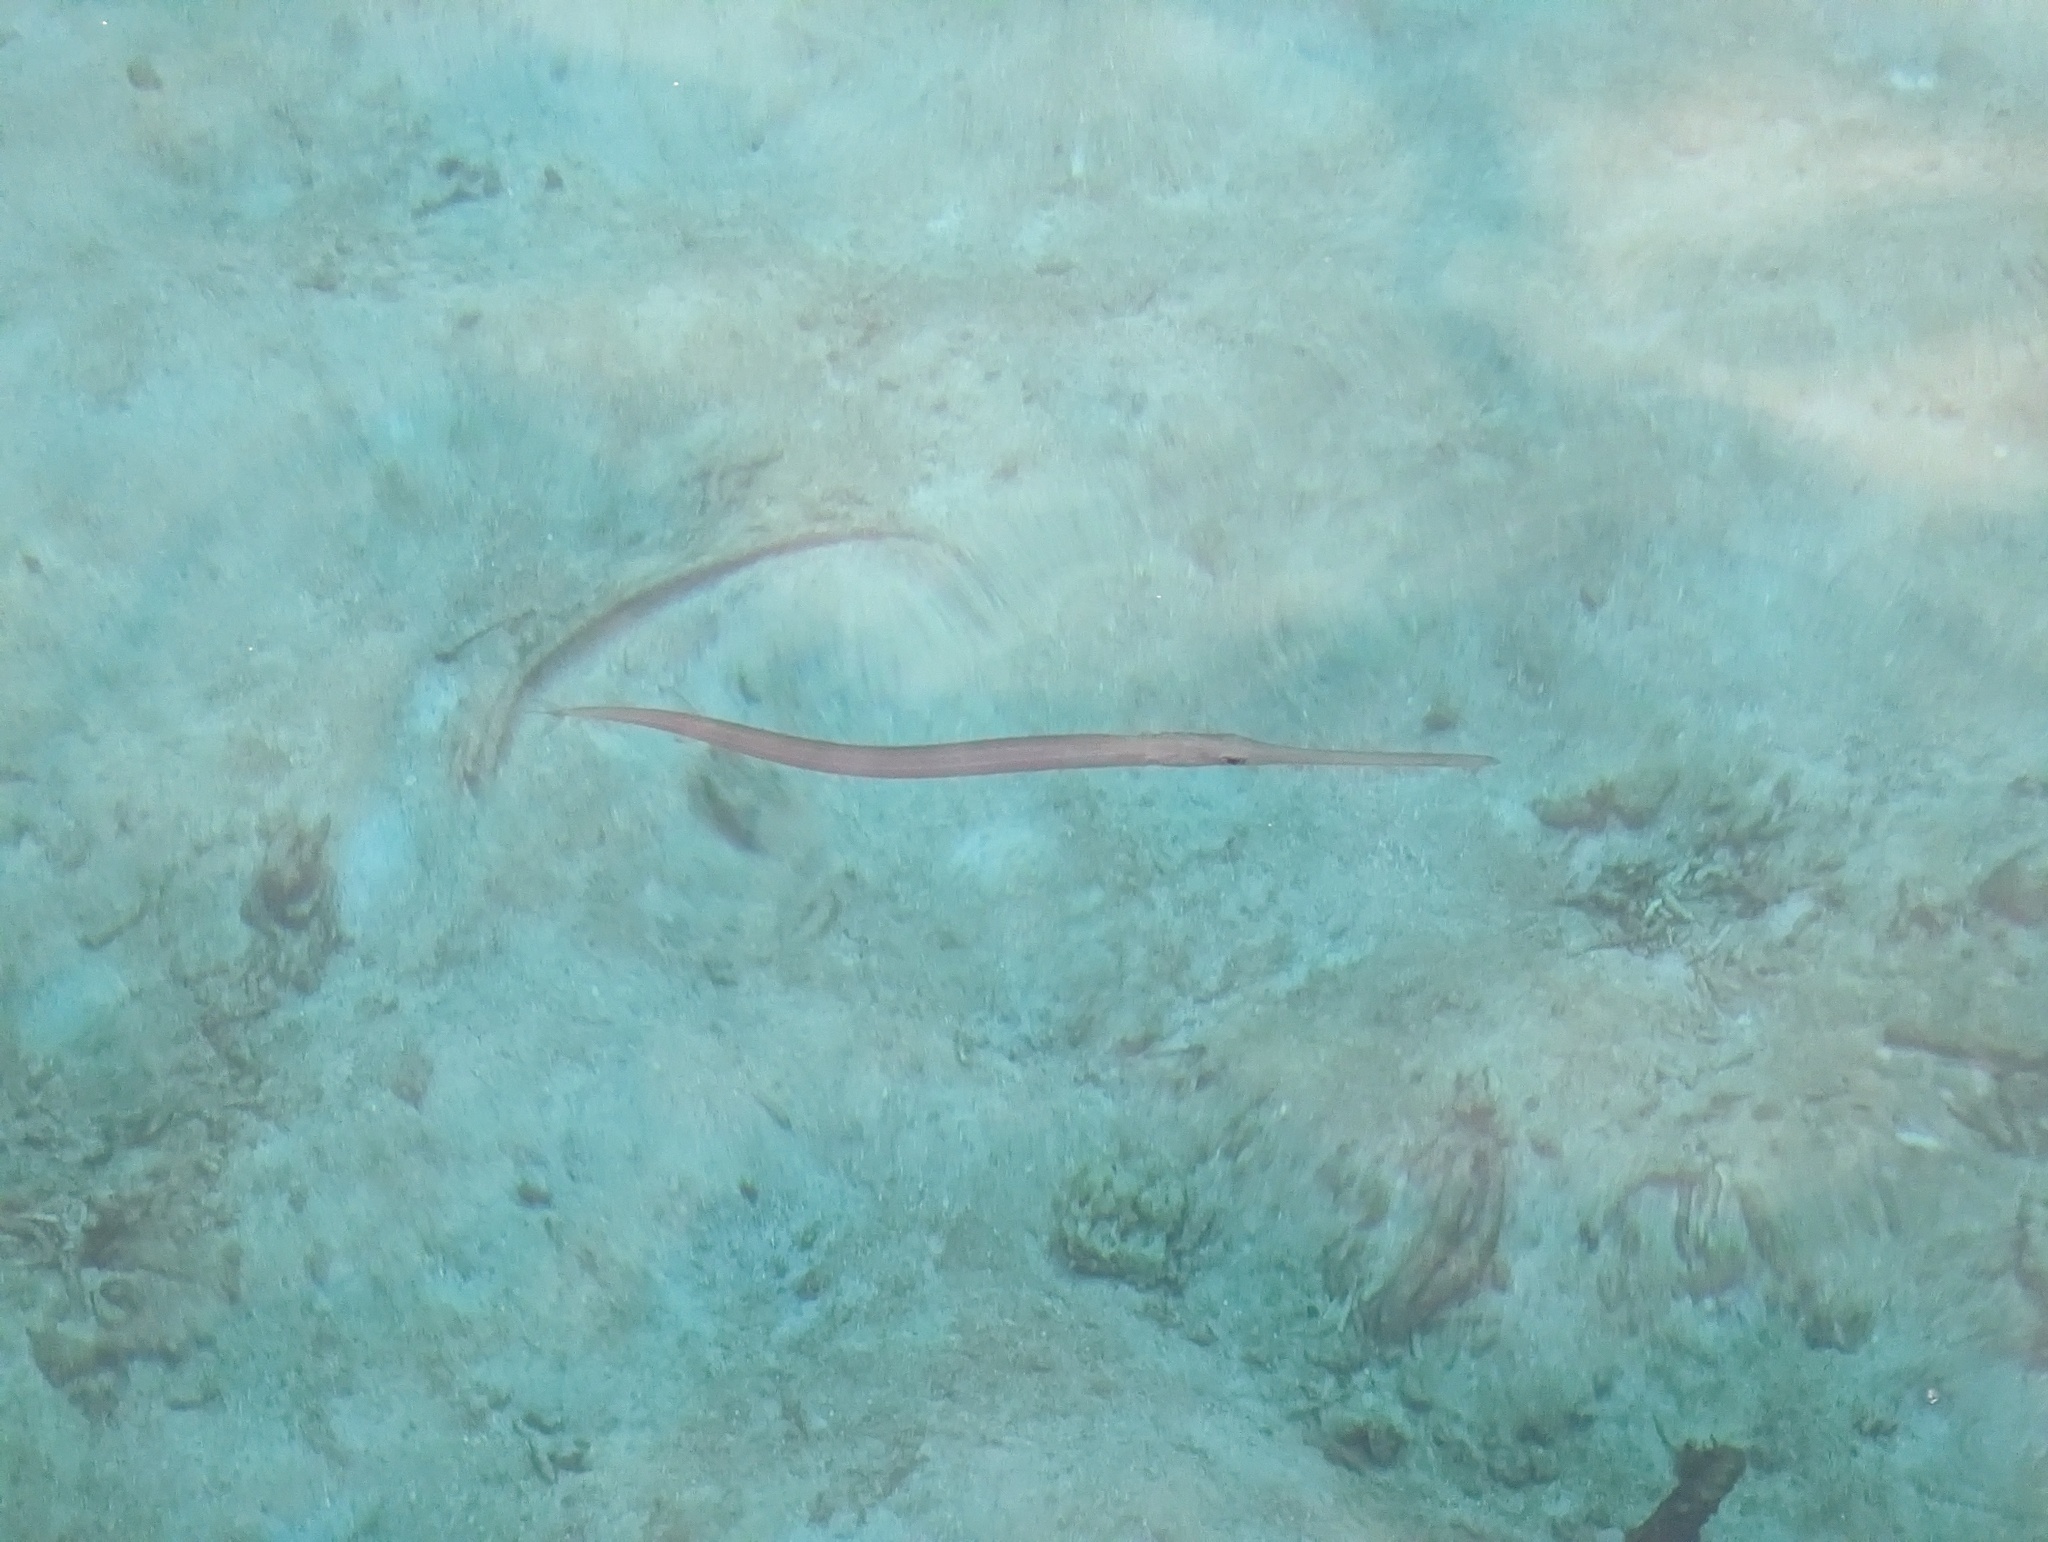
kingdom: Animalia
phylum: Chordata
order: Syngnathiformes
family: Fistulariidae
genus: Fistularia
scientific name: Fistularia commersonii
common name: Bluespotted cornetfish
